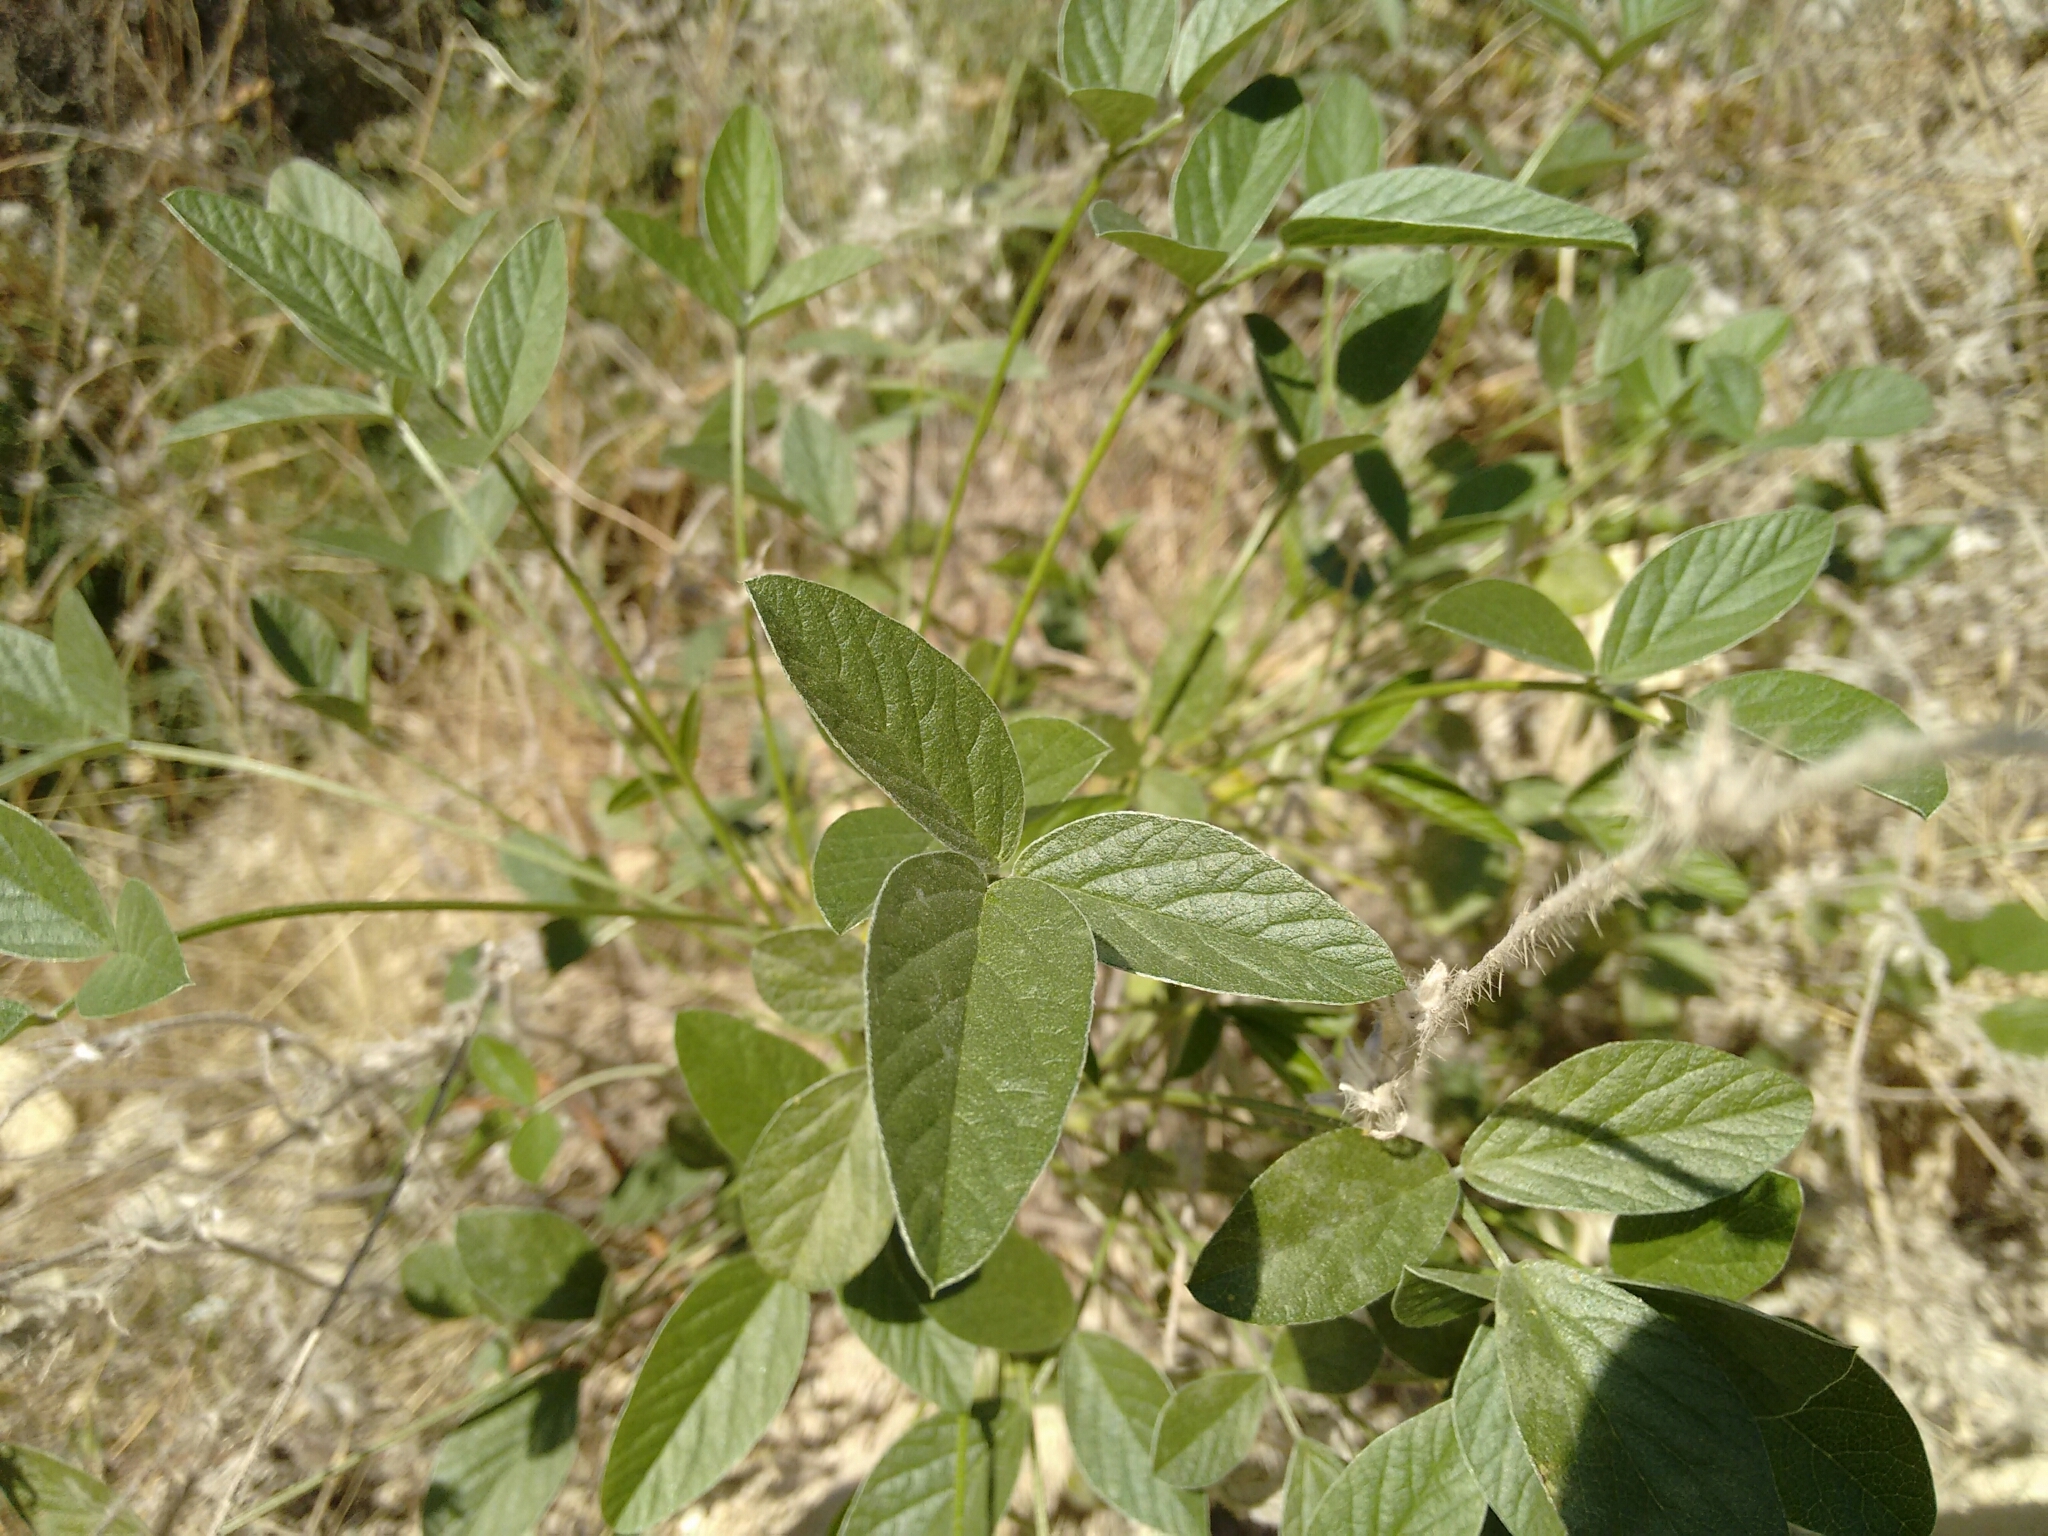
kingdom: Plantae
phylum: Tracheophyta
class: Magnoliopsida
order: Fabales
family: Fabaceae
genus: Bituminaria
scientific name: Bituminaria bituminosa
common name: Arabian pea
